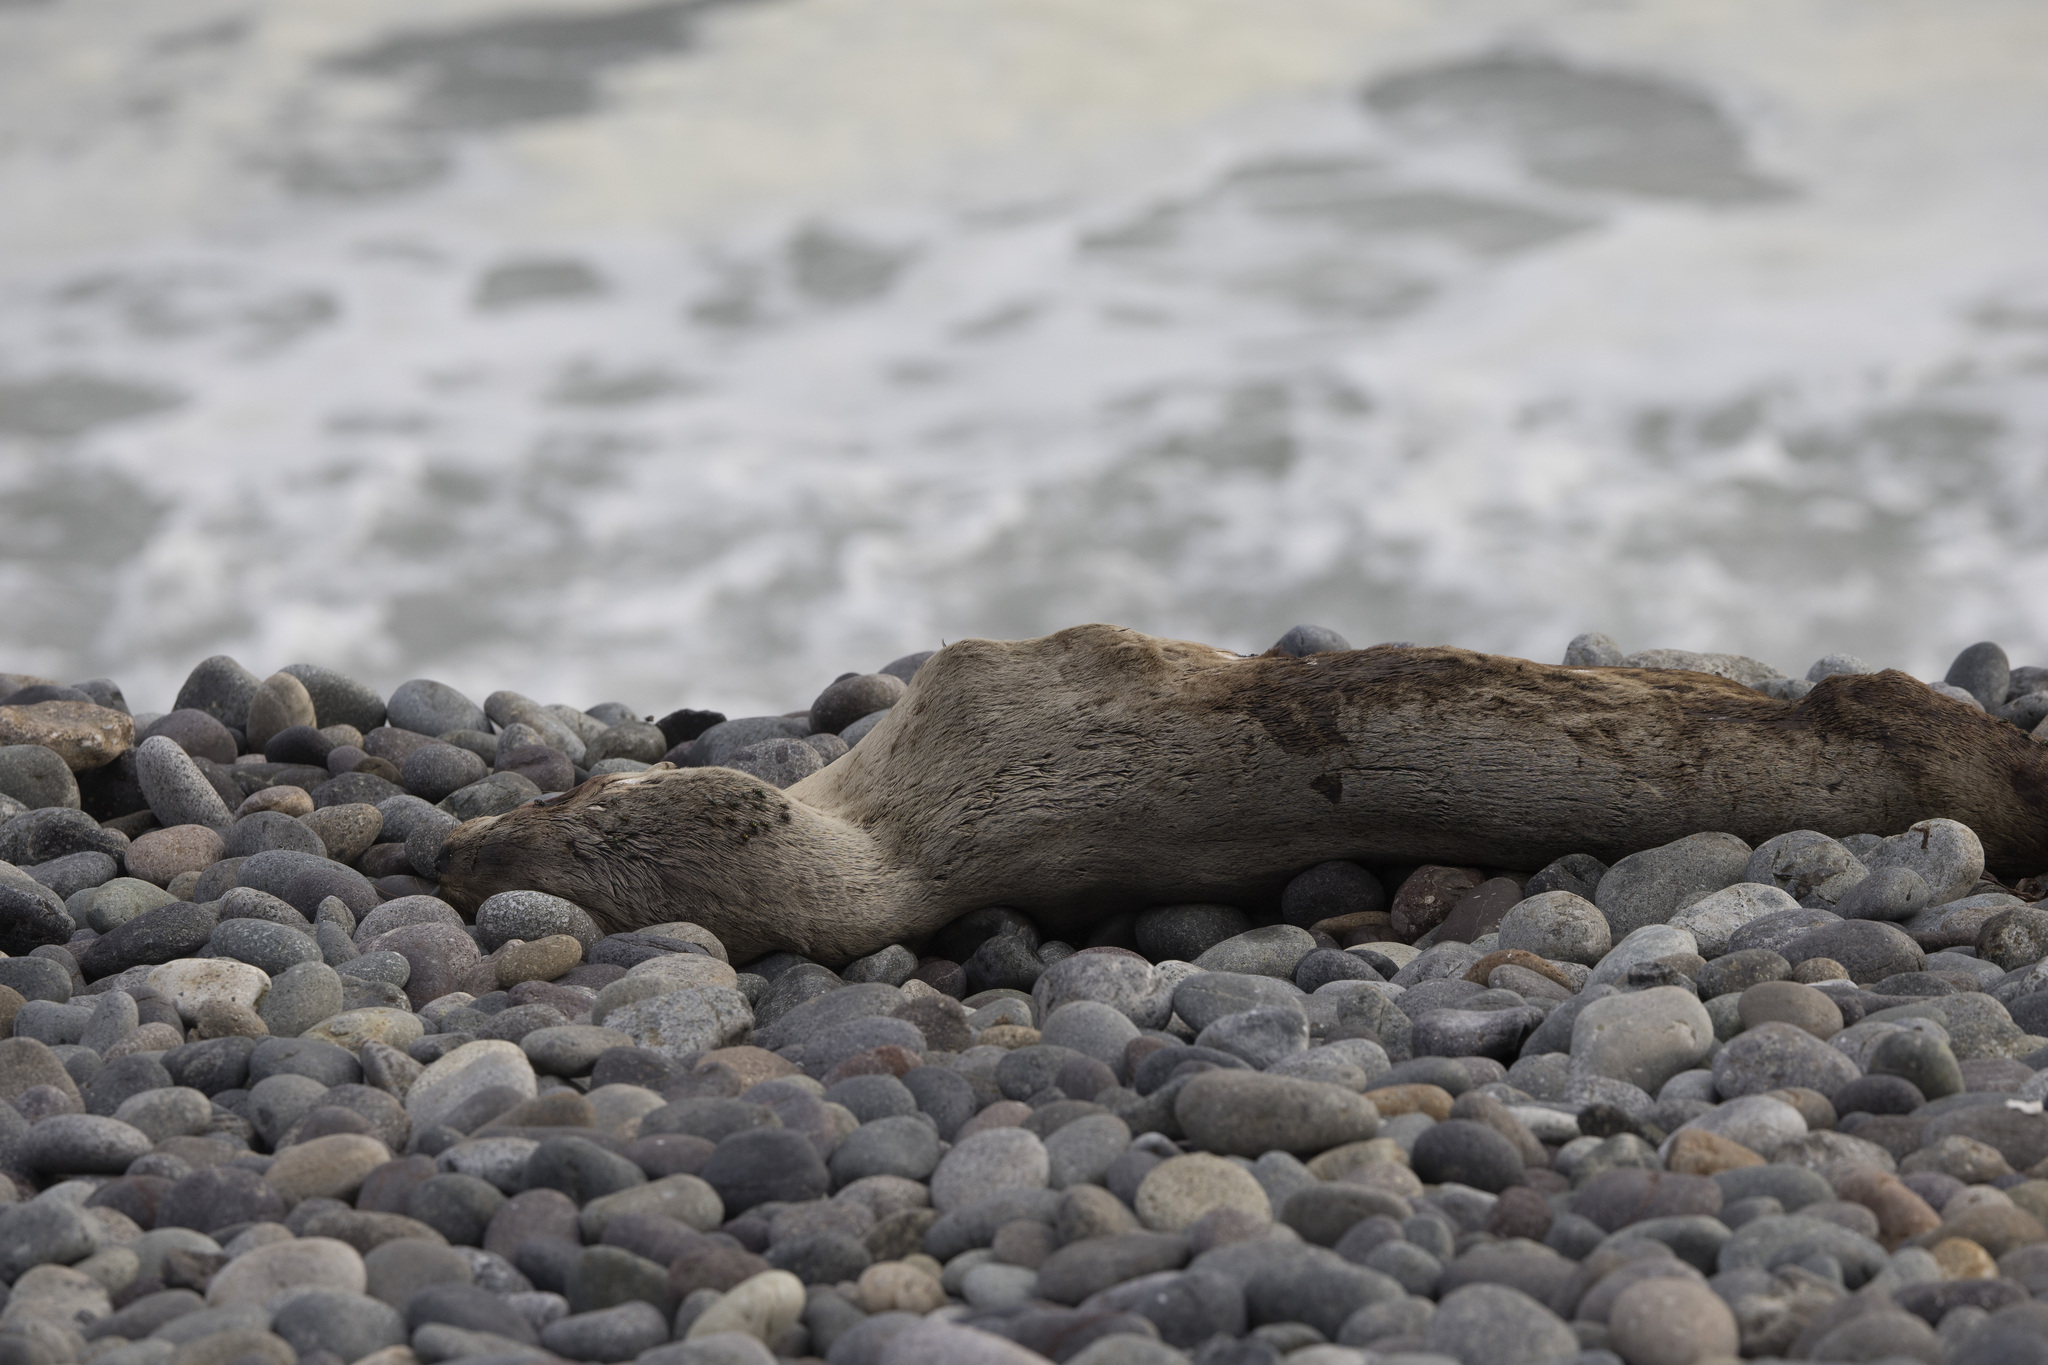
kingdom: Animalia
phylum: Chordata
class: Mammalia
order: Carnivora
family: Otariidae
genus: Otaria
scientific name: Otaria byronia
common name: South american sea lion
